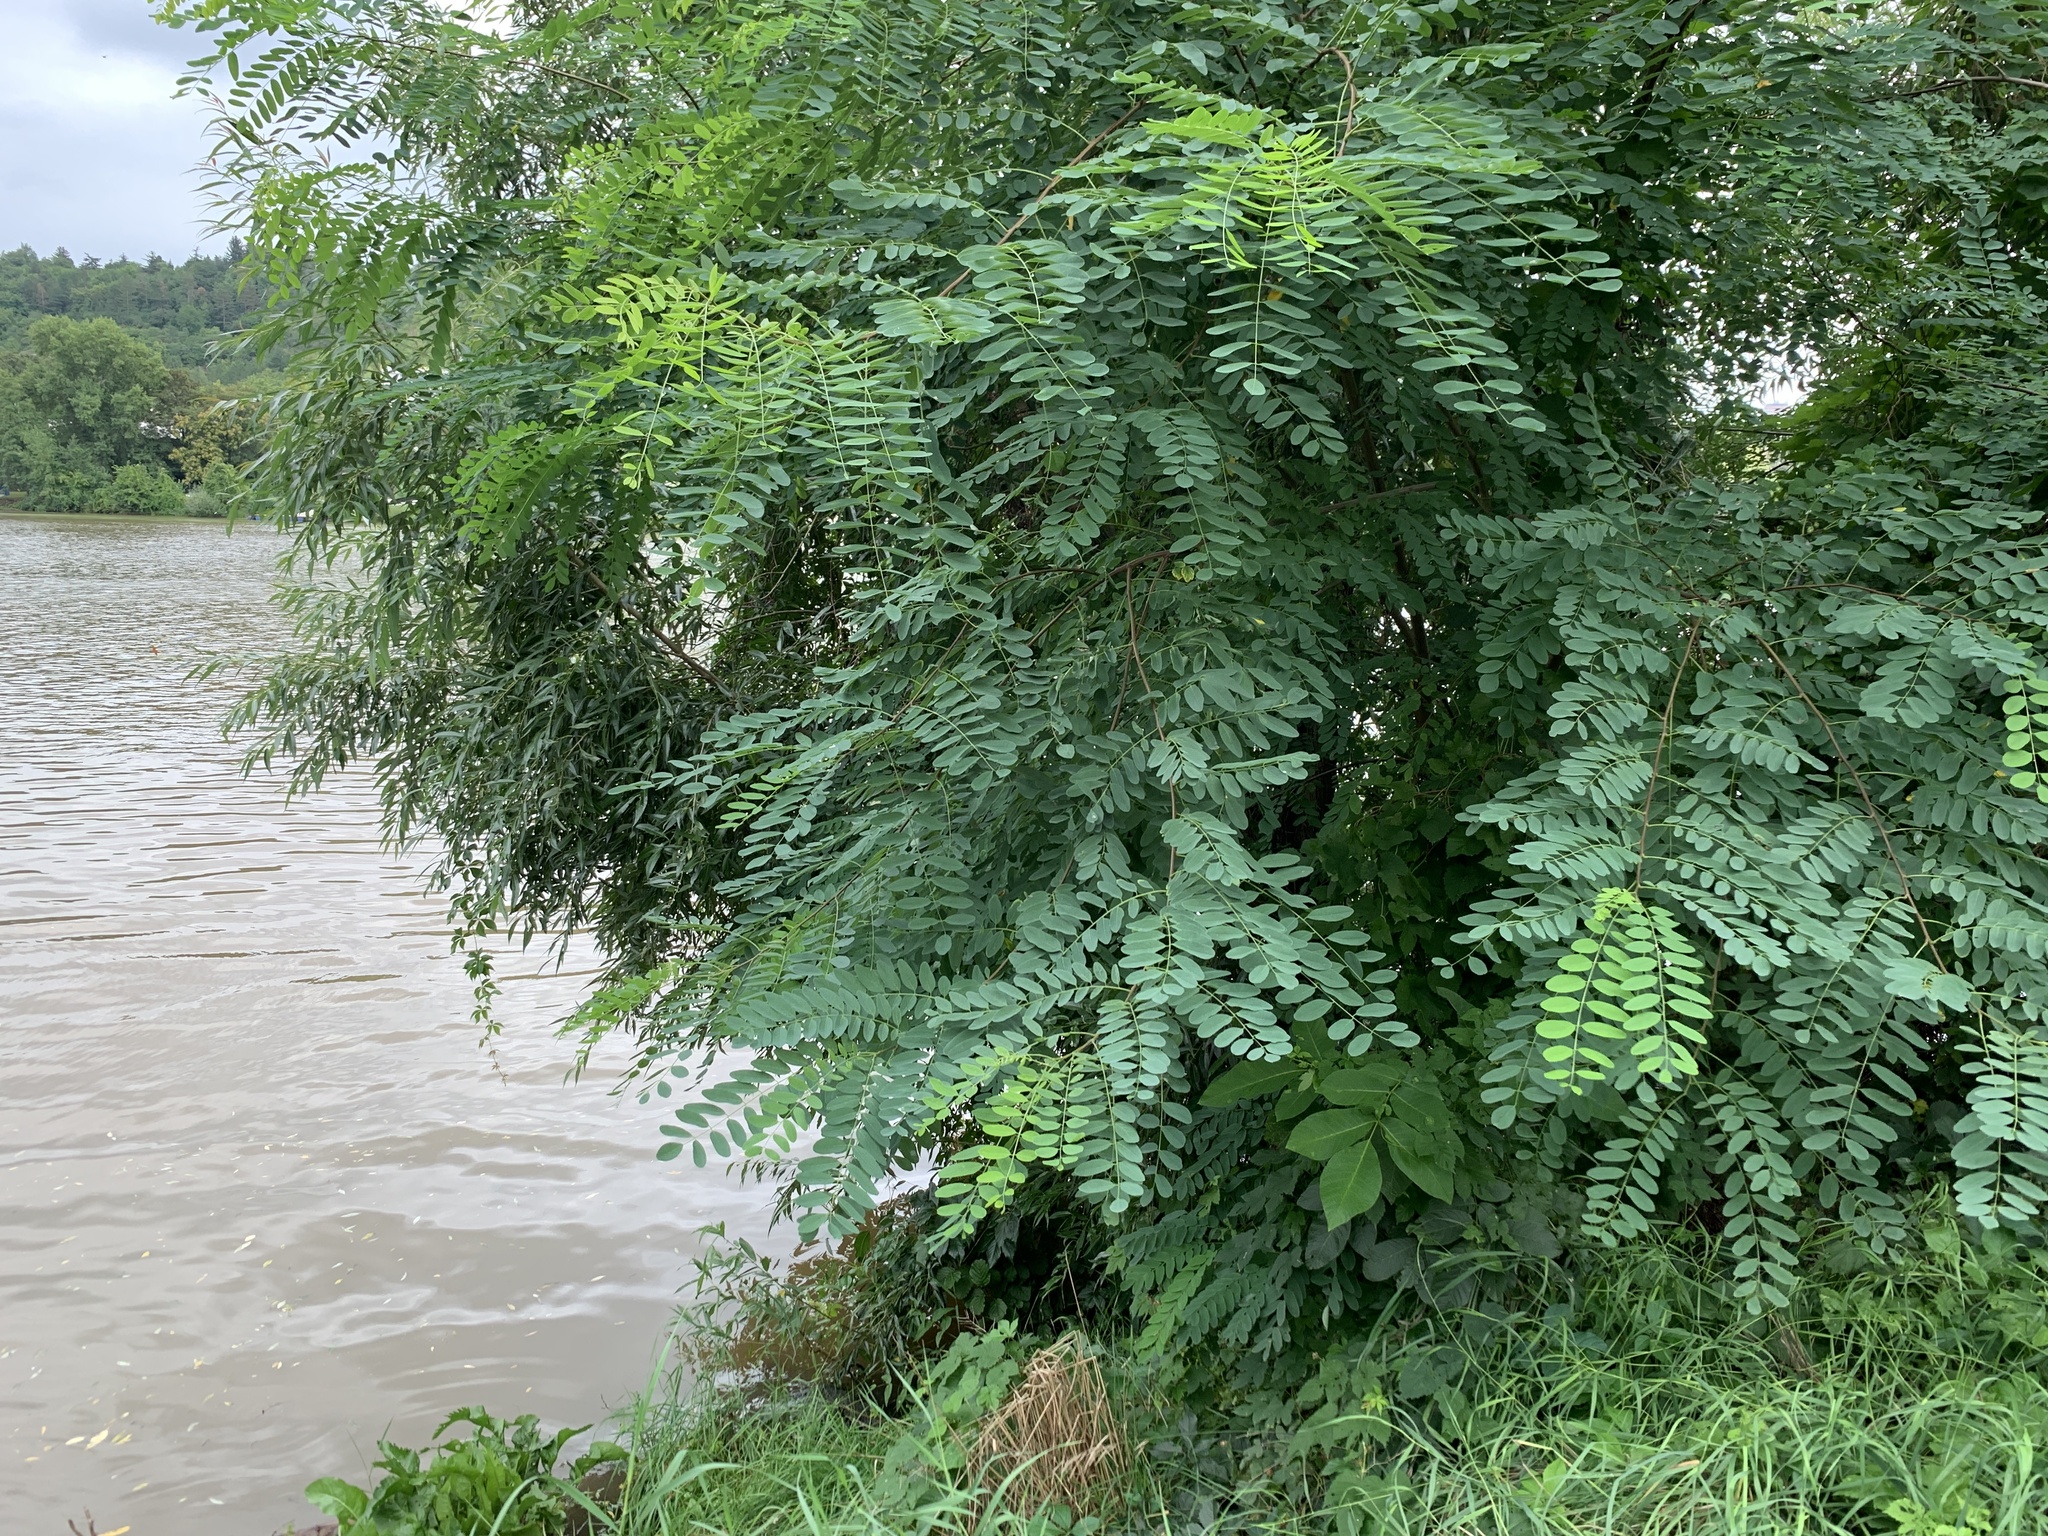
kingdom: Plantae
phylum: Tracheophyta
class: Magnoliopsida
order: Fabales
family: Fabaceae
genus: Robinia
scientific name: Robinia pseudoacacia
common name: Black locust
